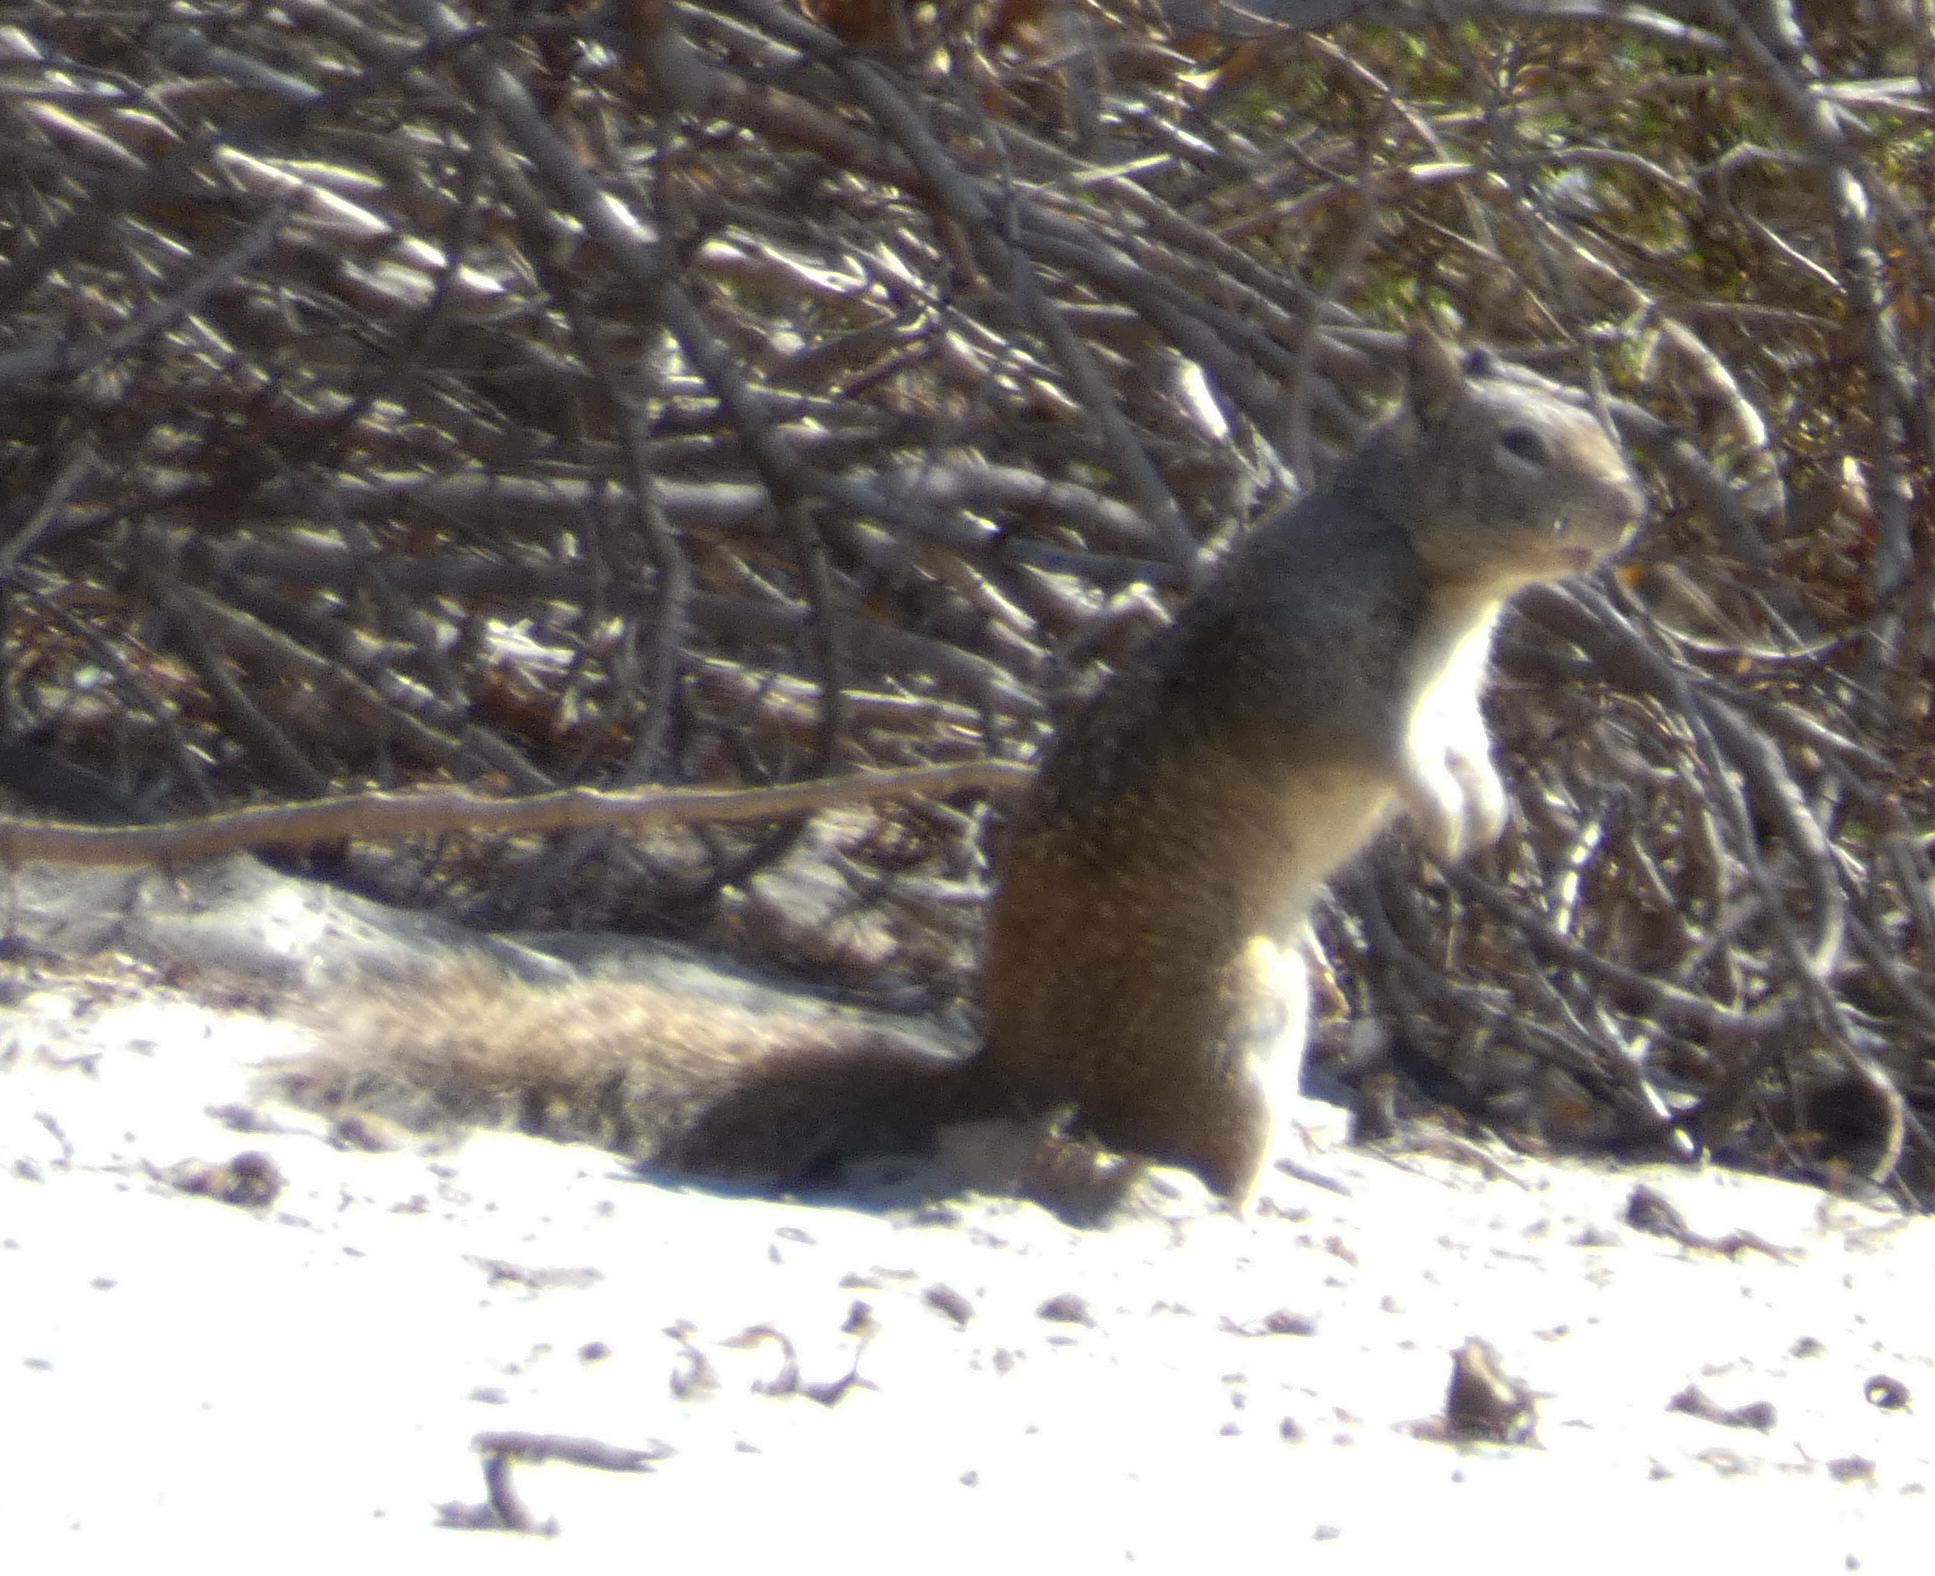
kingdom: Animalia
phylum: Chordata
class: Mammalia
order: Rodentia
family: Sciuridae
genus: Otospermophilus
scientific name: Otospermophilus beecheyi
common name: California ground squirrel
